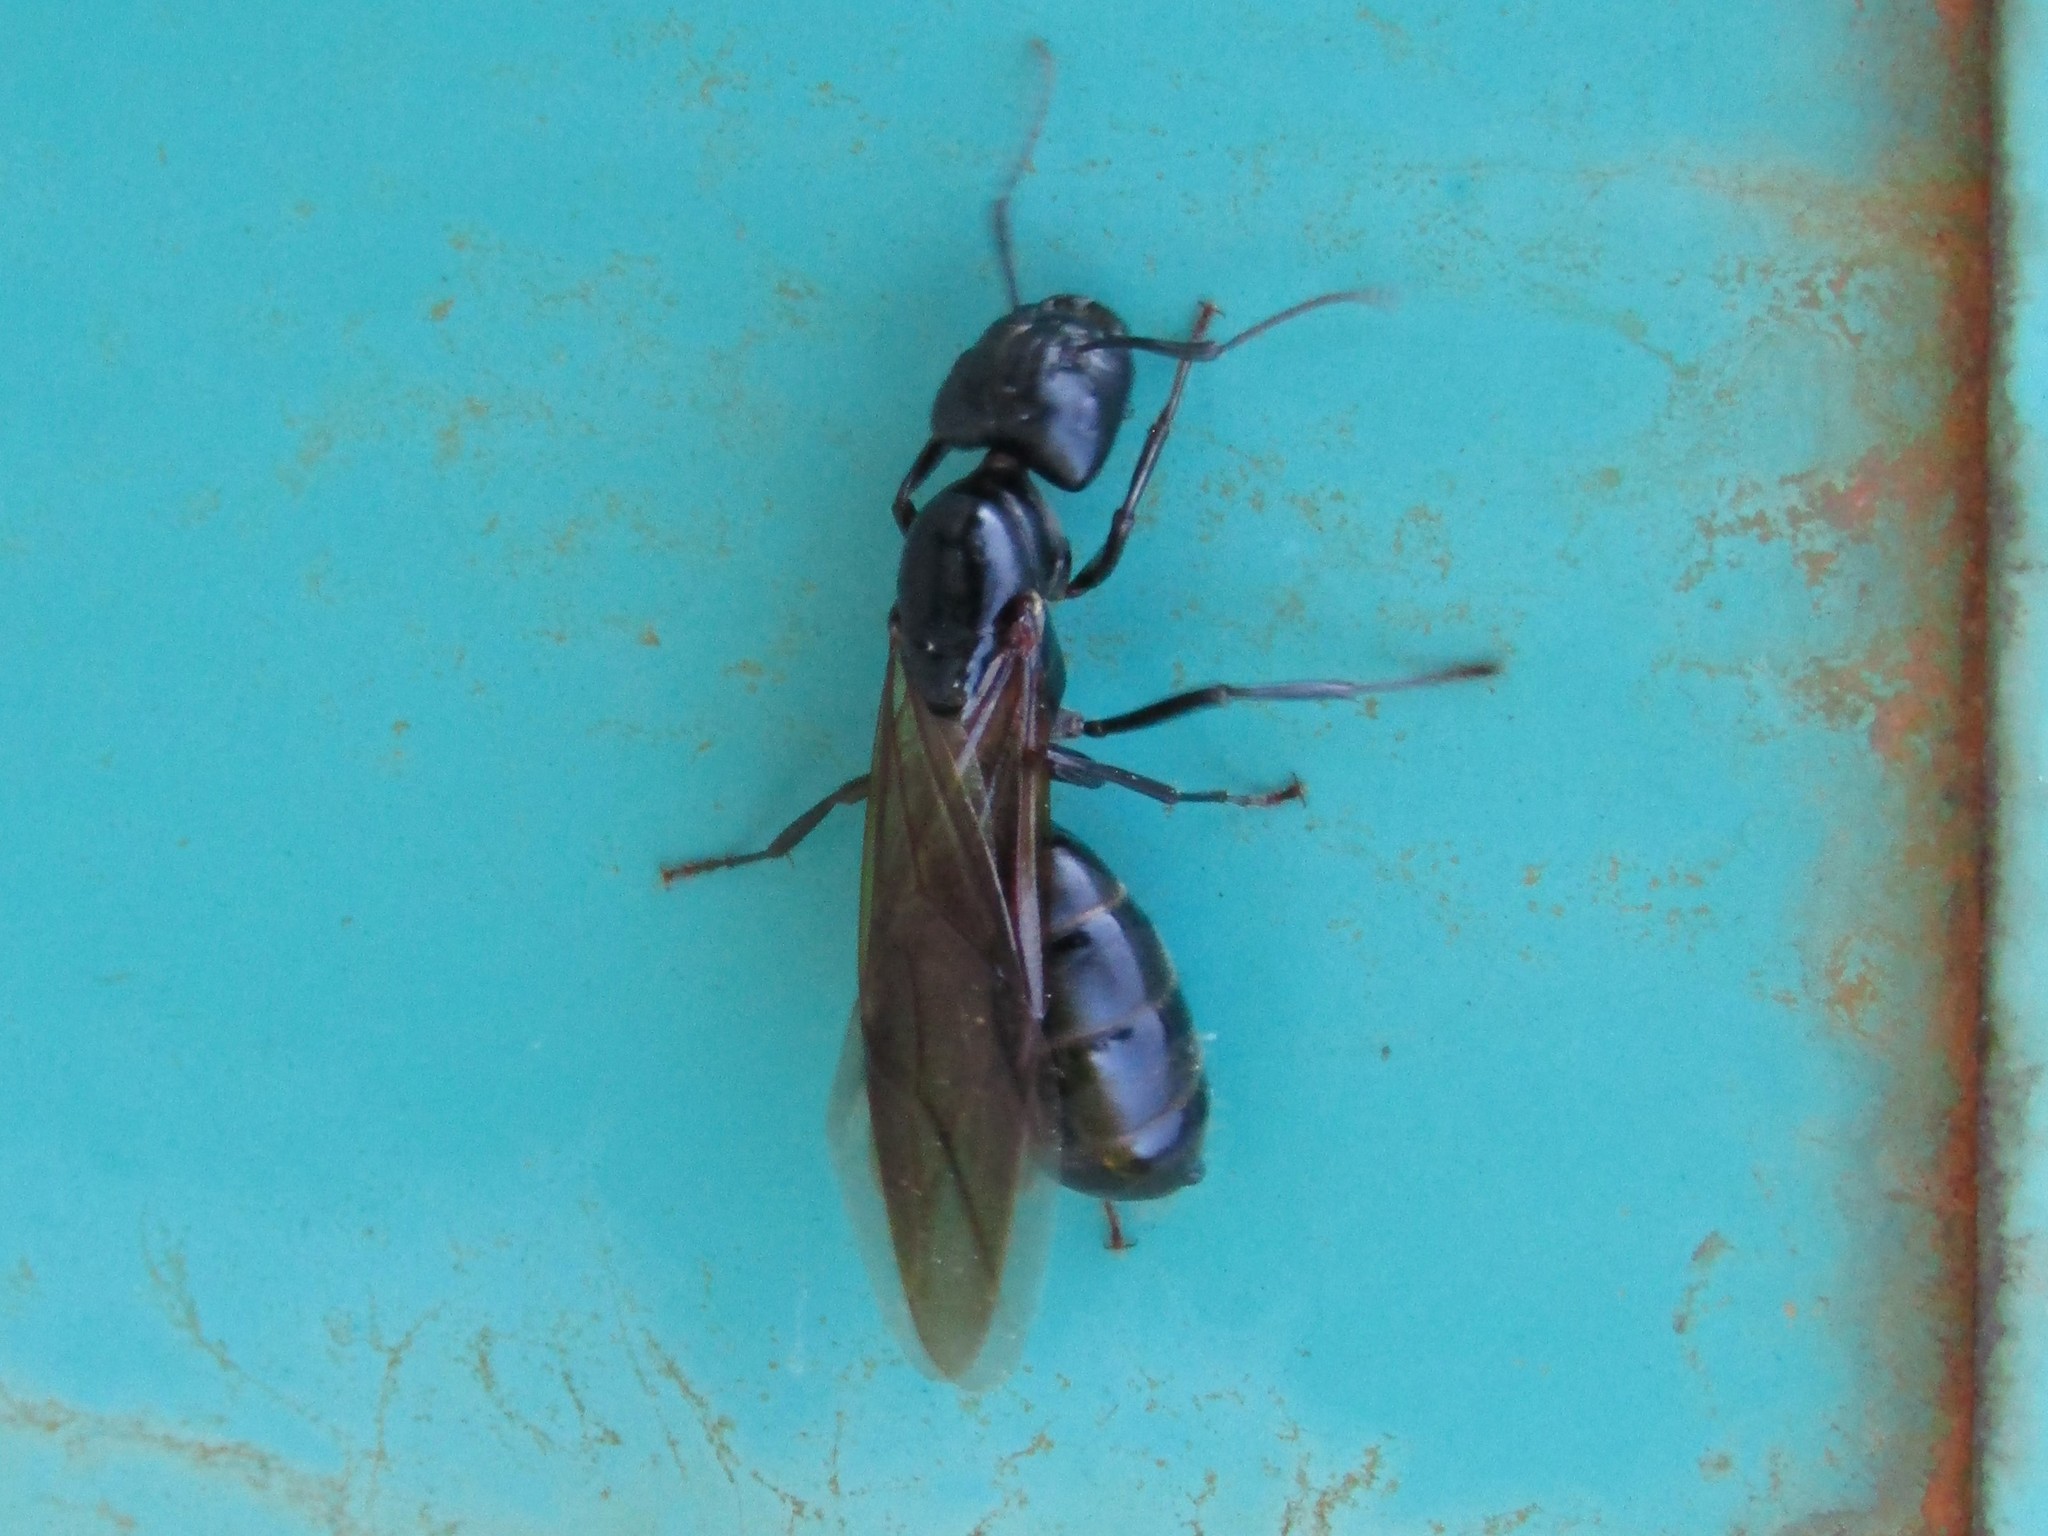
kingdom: Animalia
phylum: Arthropoda
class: Insecta
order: Hymenoptera
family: Formicidae
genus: Camponotus
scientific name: Camponotus pennsylvanicus
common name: Black carpenter ant
